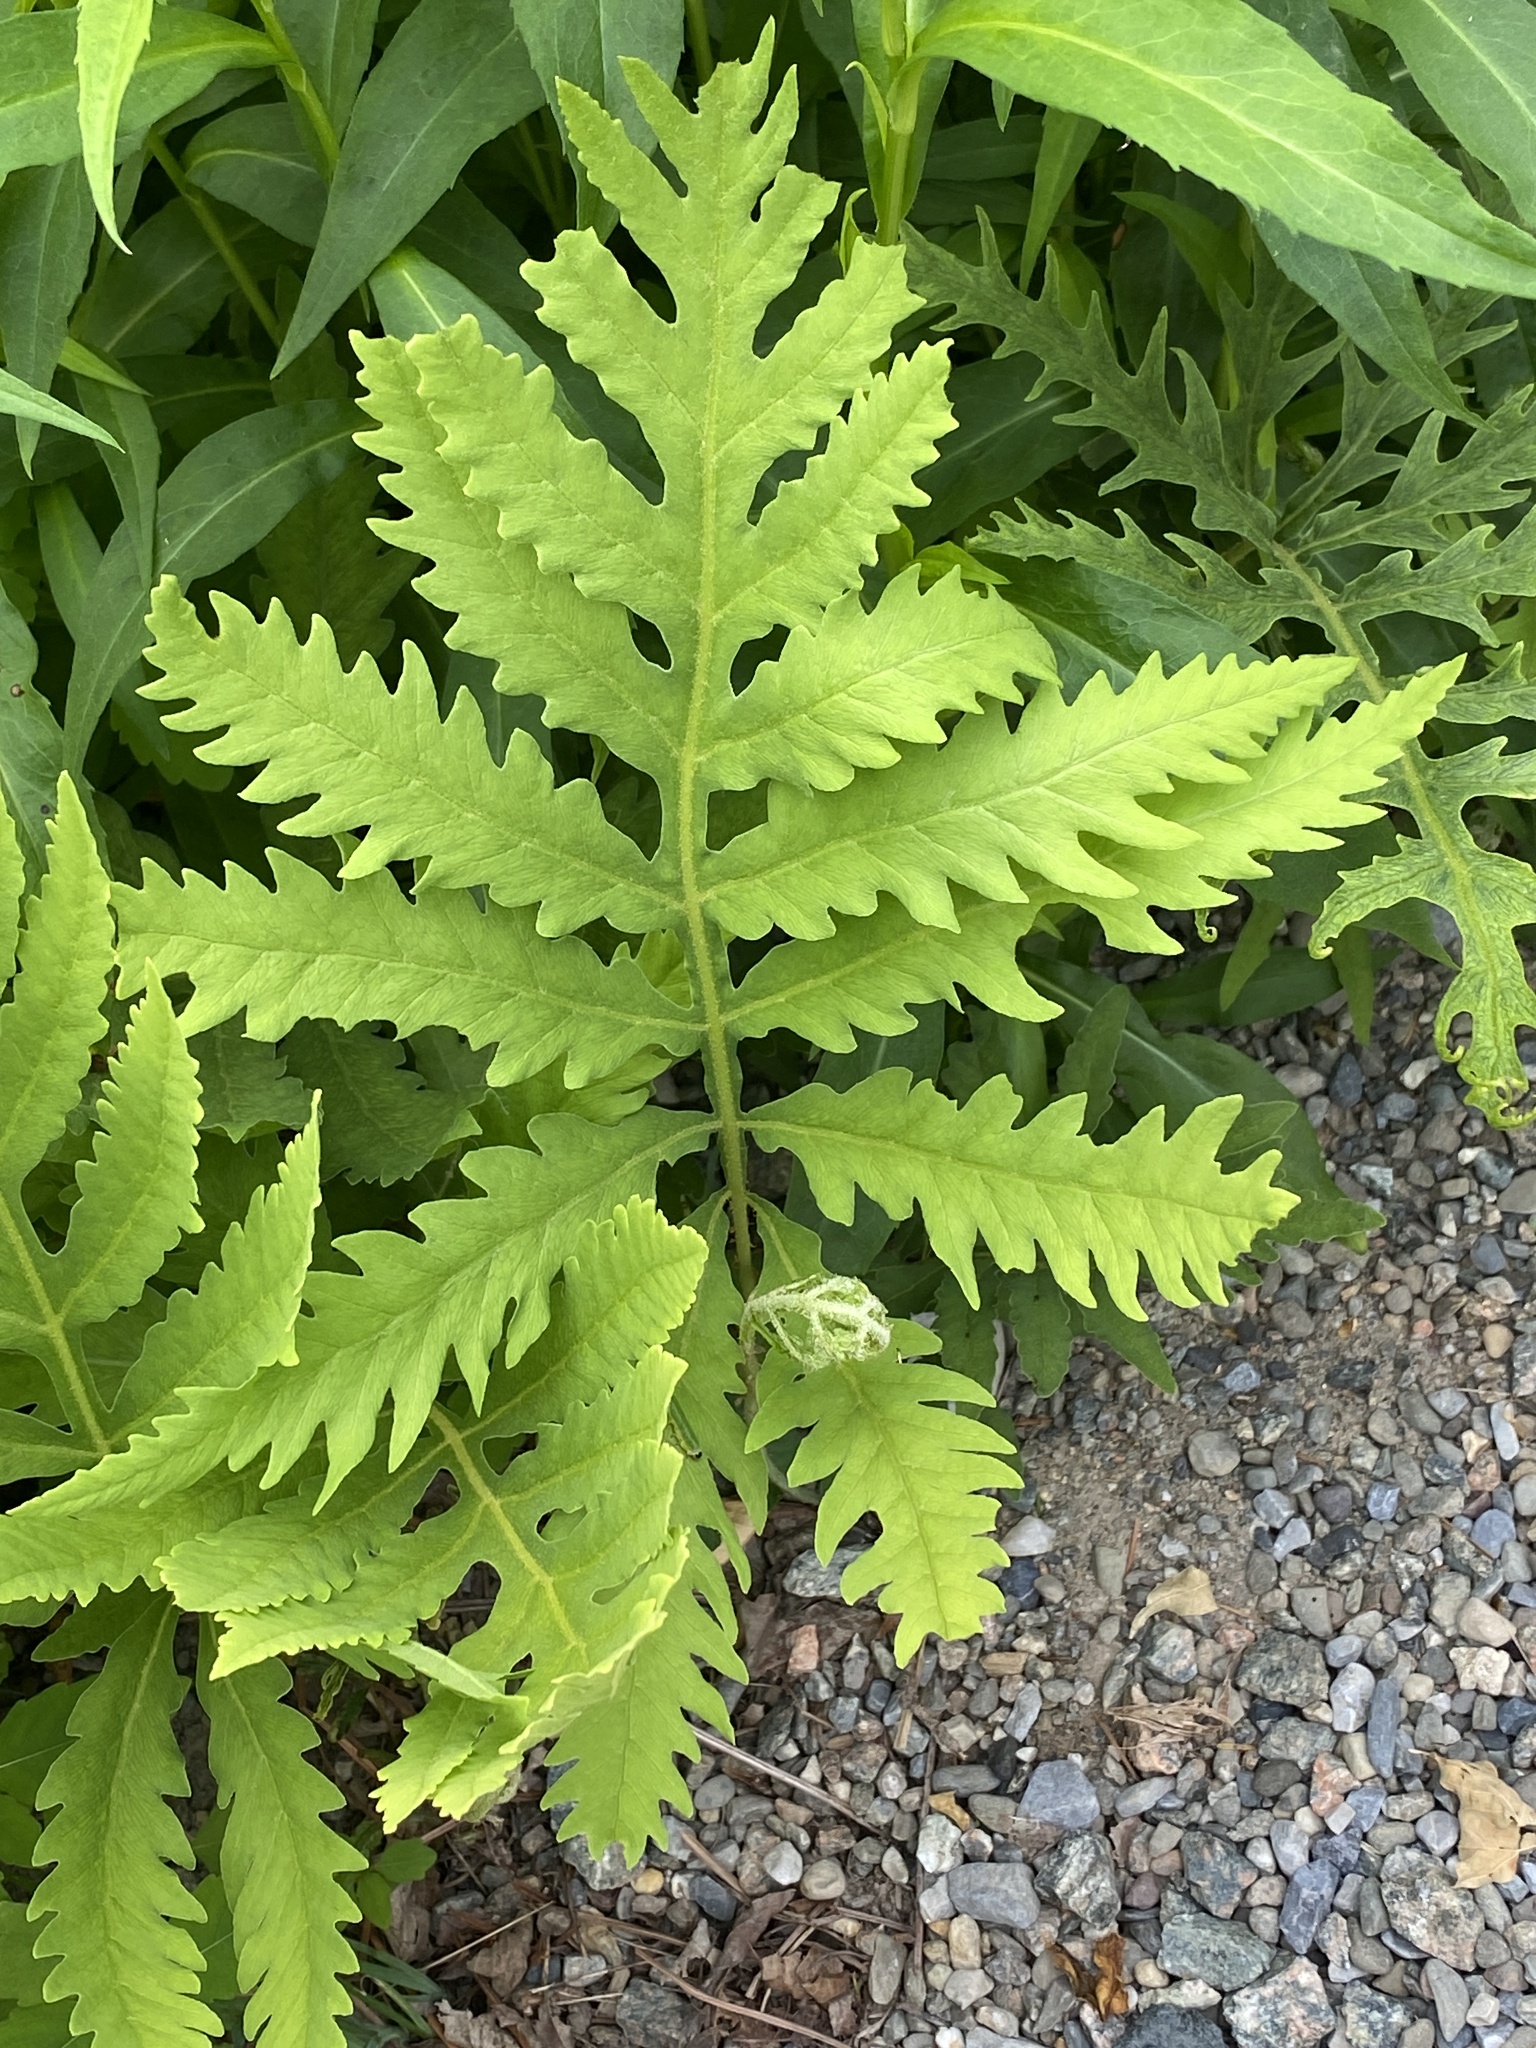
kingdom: Plantae
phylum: Tracheophyta
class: Polypodiopsida
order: Polypodiales
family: Onocleaceae
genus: Onoclea
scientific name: Onoclea sensibilis
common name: Sensitive fern
